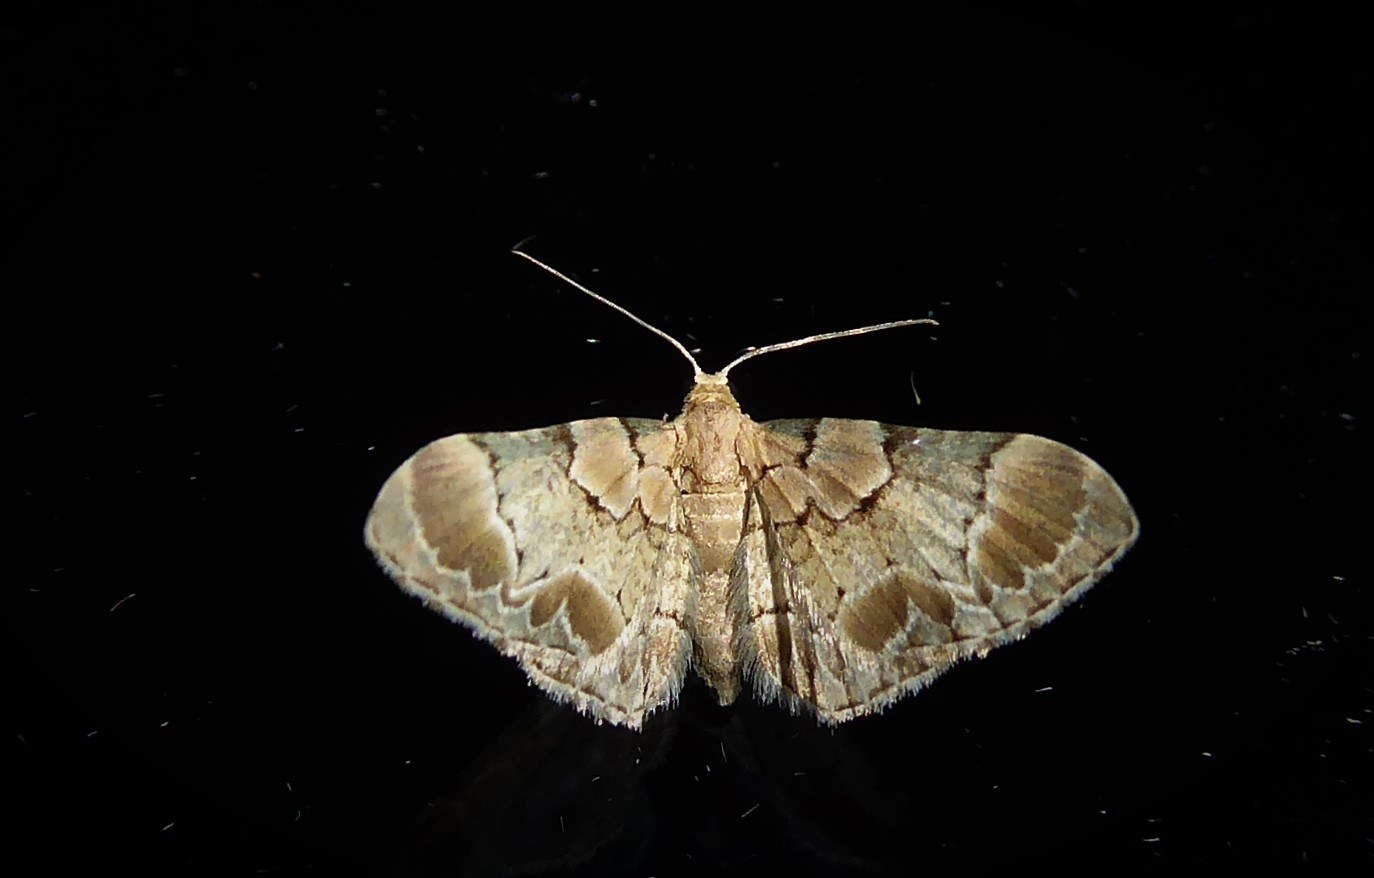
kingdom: Animalia
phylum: Arthropoda
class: Insecta
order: Lepidoptera
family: Geometridae
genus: Chloroclystis
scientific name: Chloroclystis
